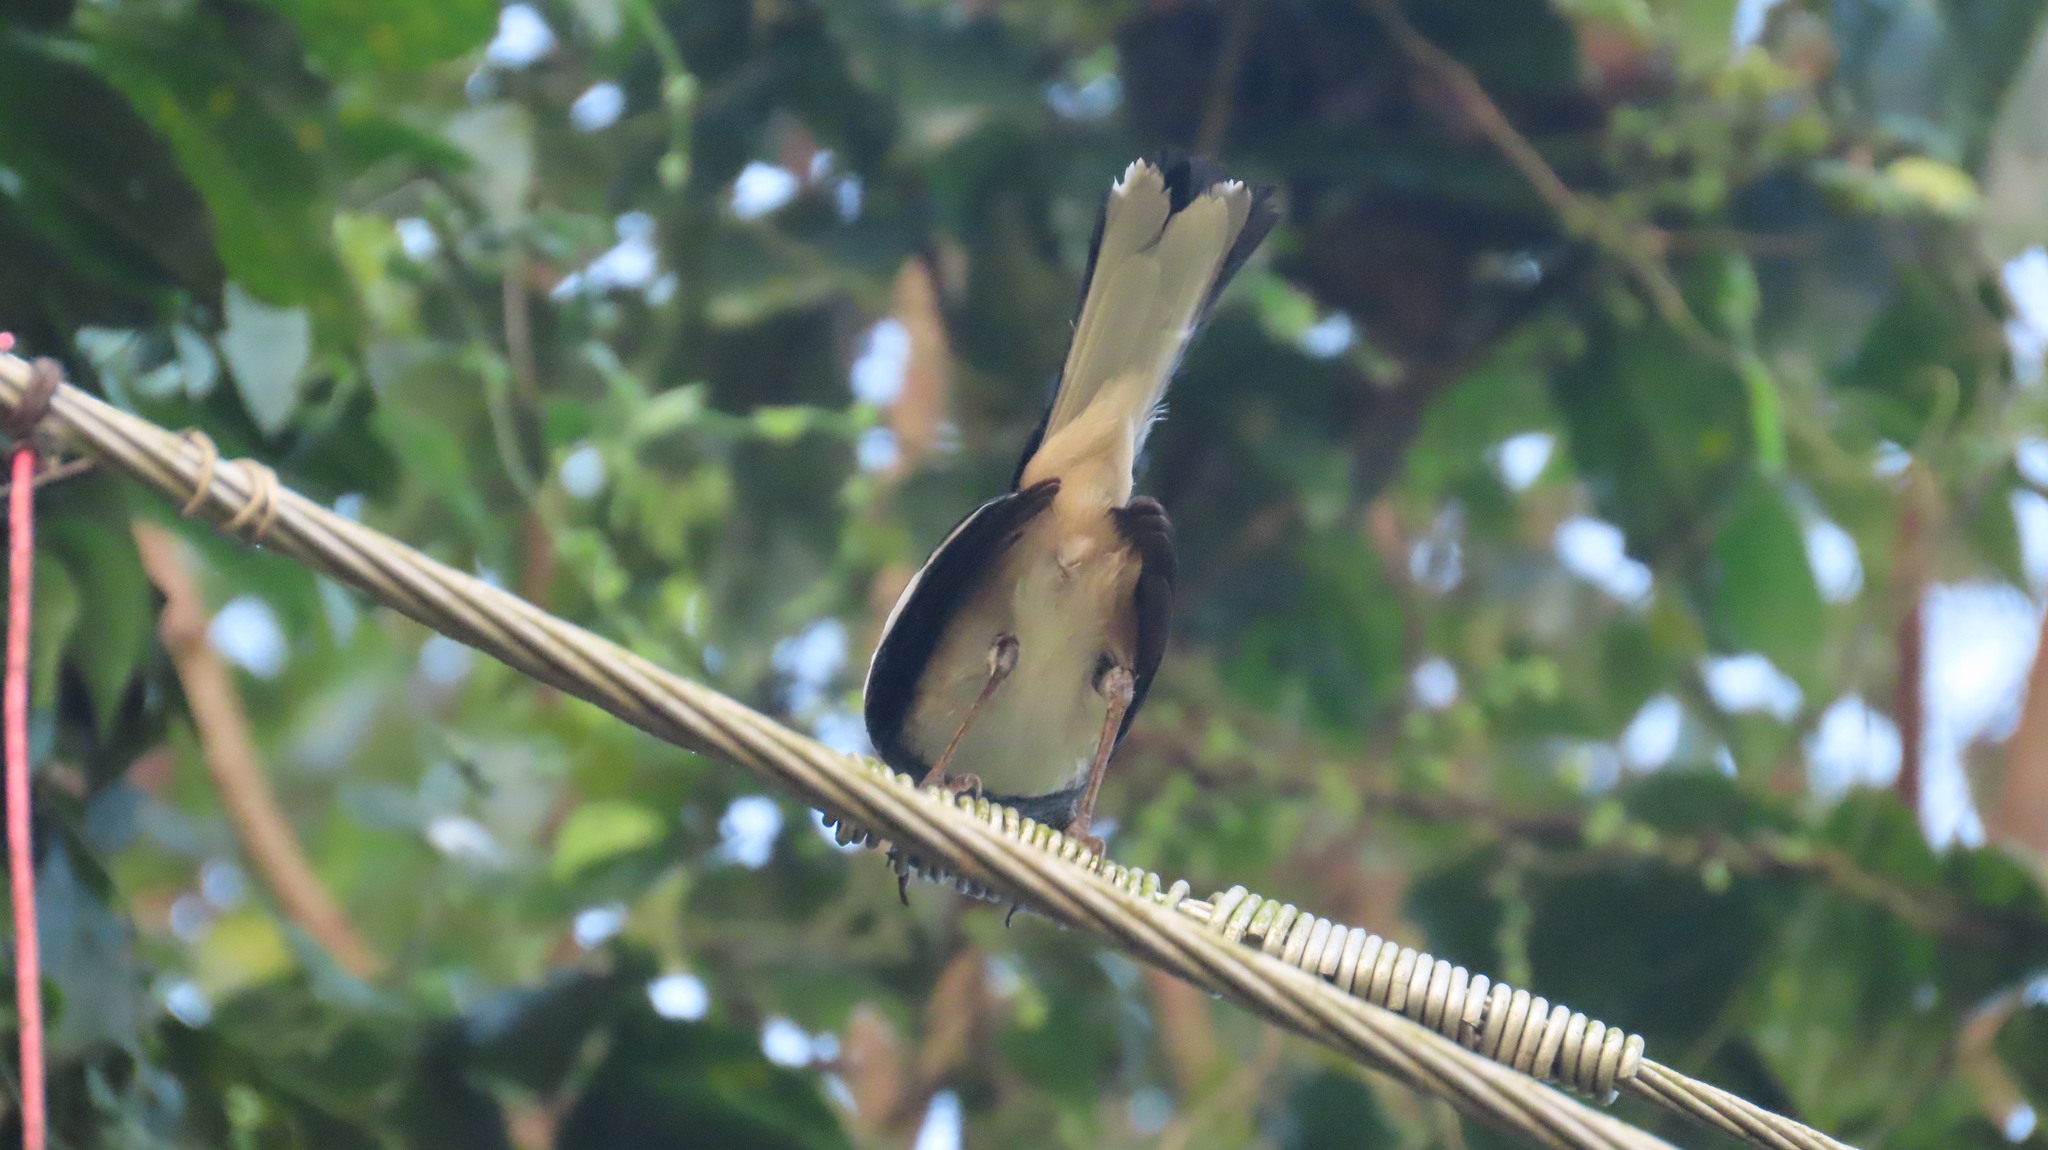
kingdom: Animalia
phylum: Chordata
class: Aves
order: Passeriformes
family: Muscicapidae
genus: Copsychus
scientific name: Copsychus saularis
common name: Oriental magpie-robin
